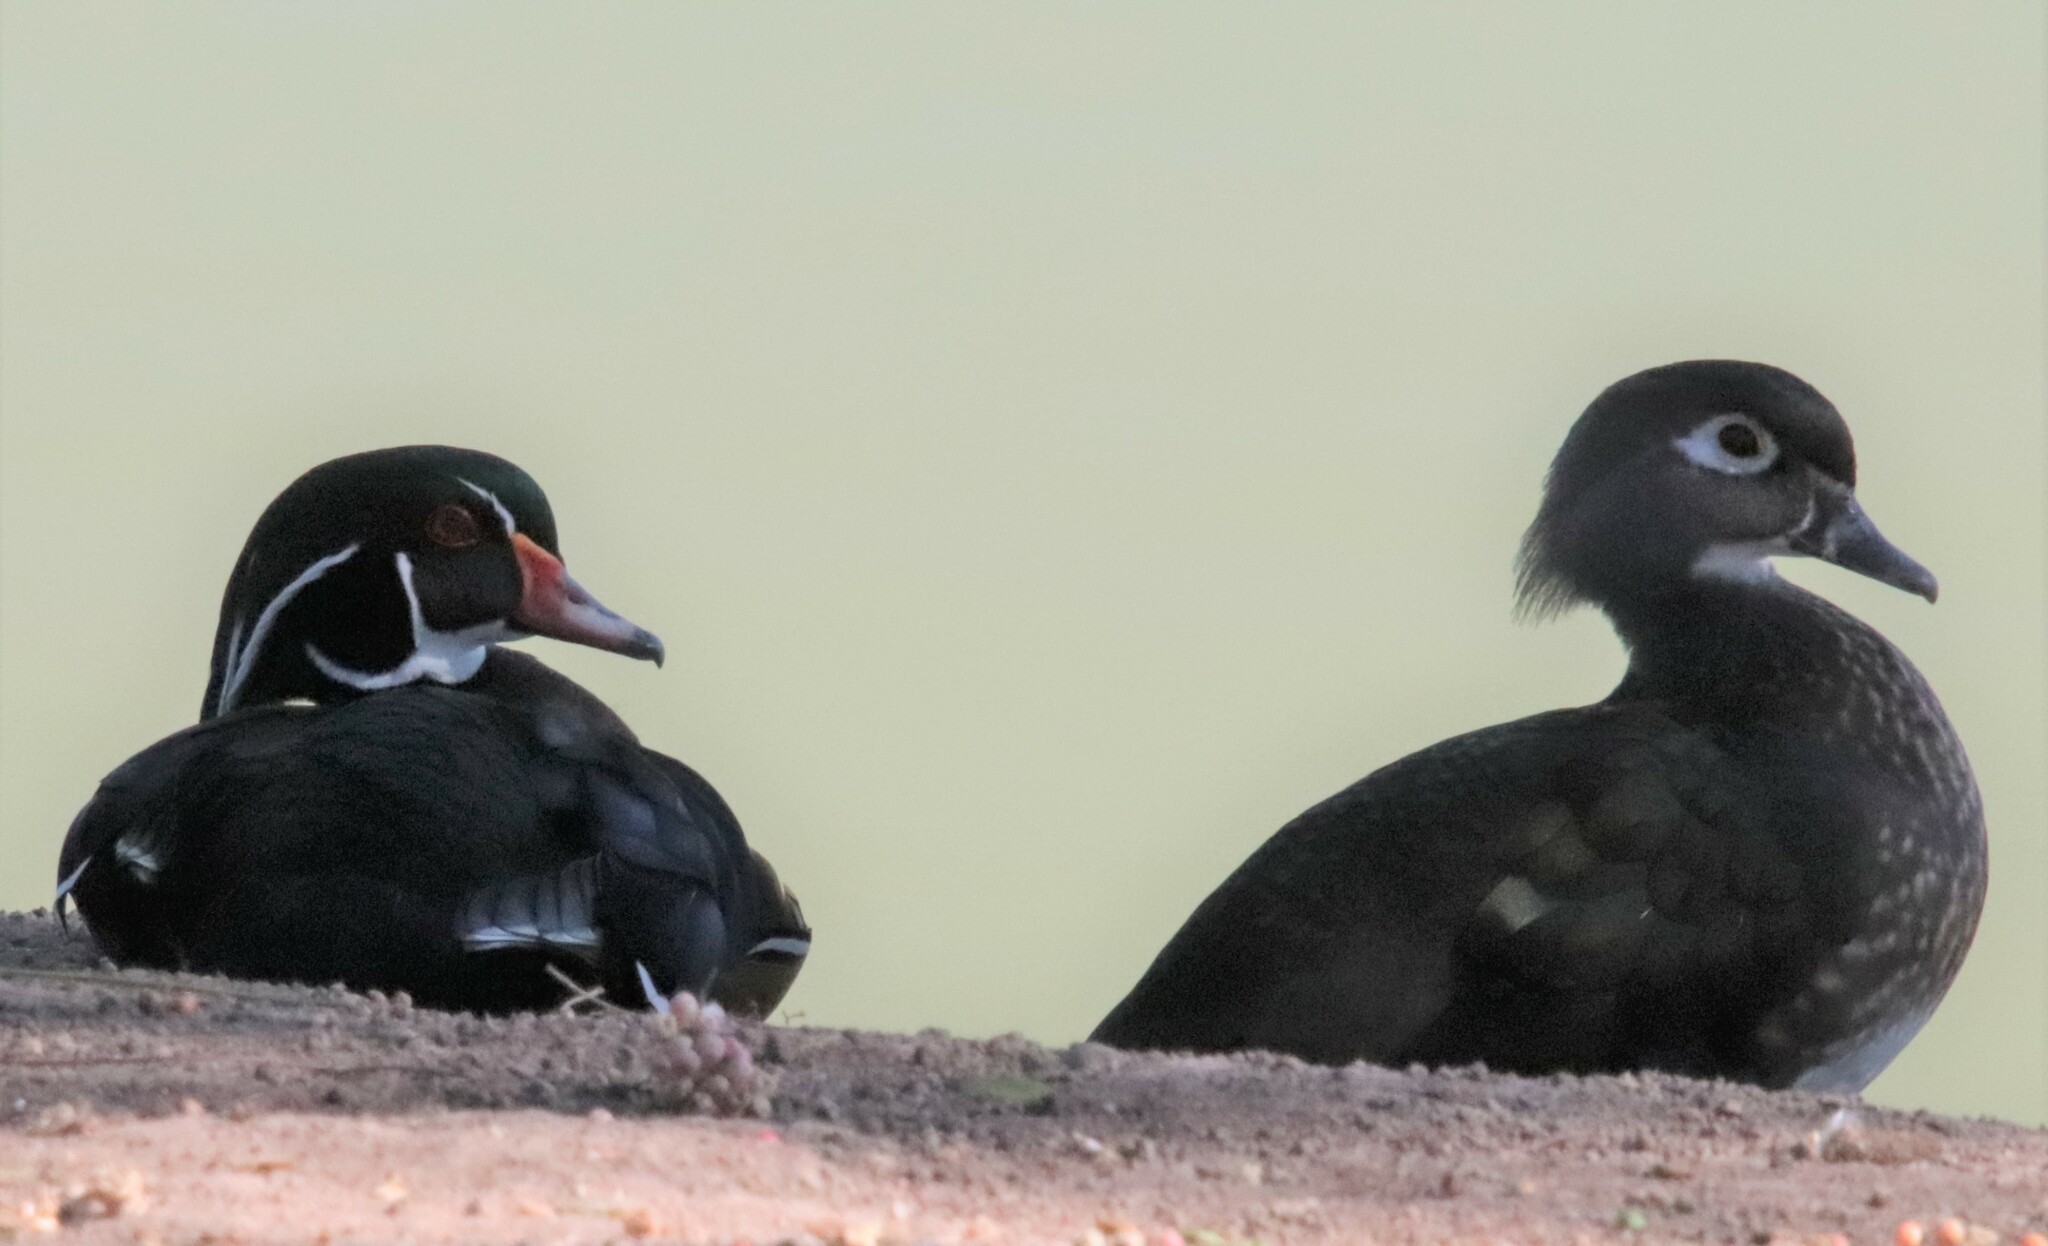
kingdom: Animalia
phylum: Chordata
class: Aves
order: Anseriformes
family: Anatidae
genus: Aix
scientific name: Aix sponsa
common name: Wood duck
